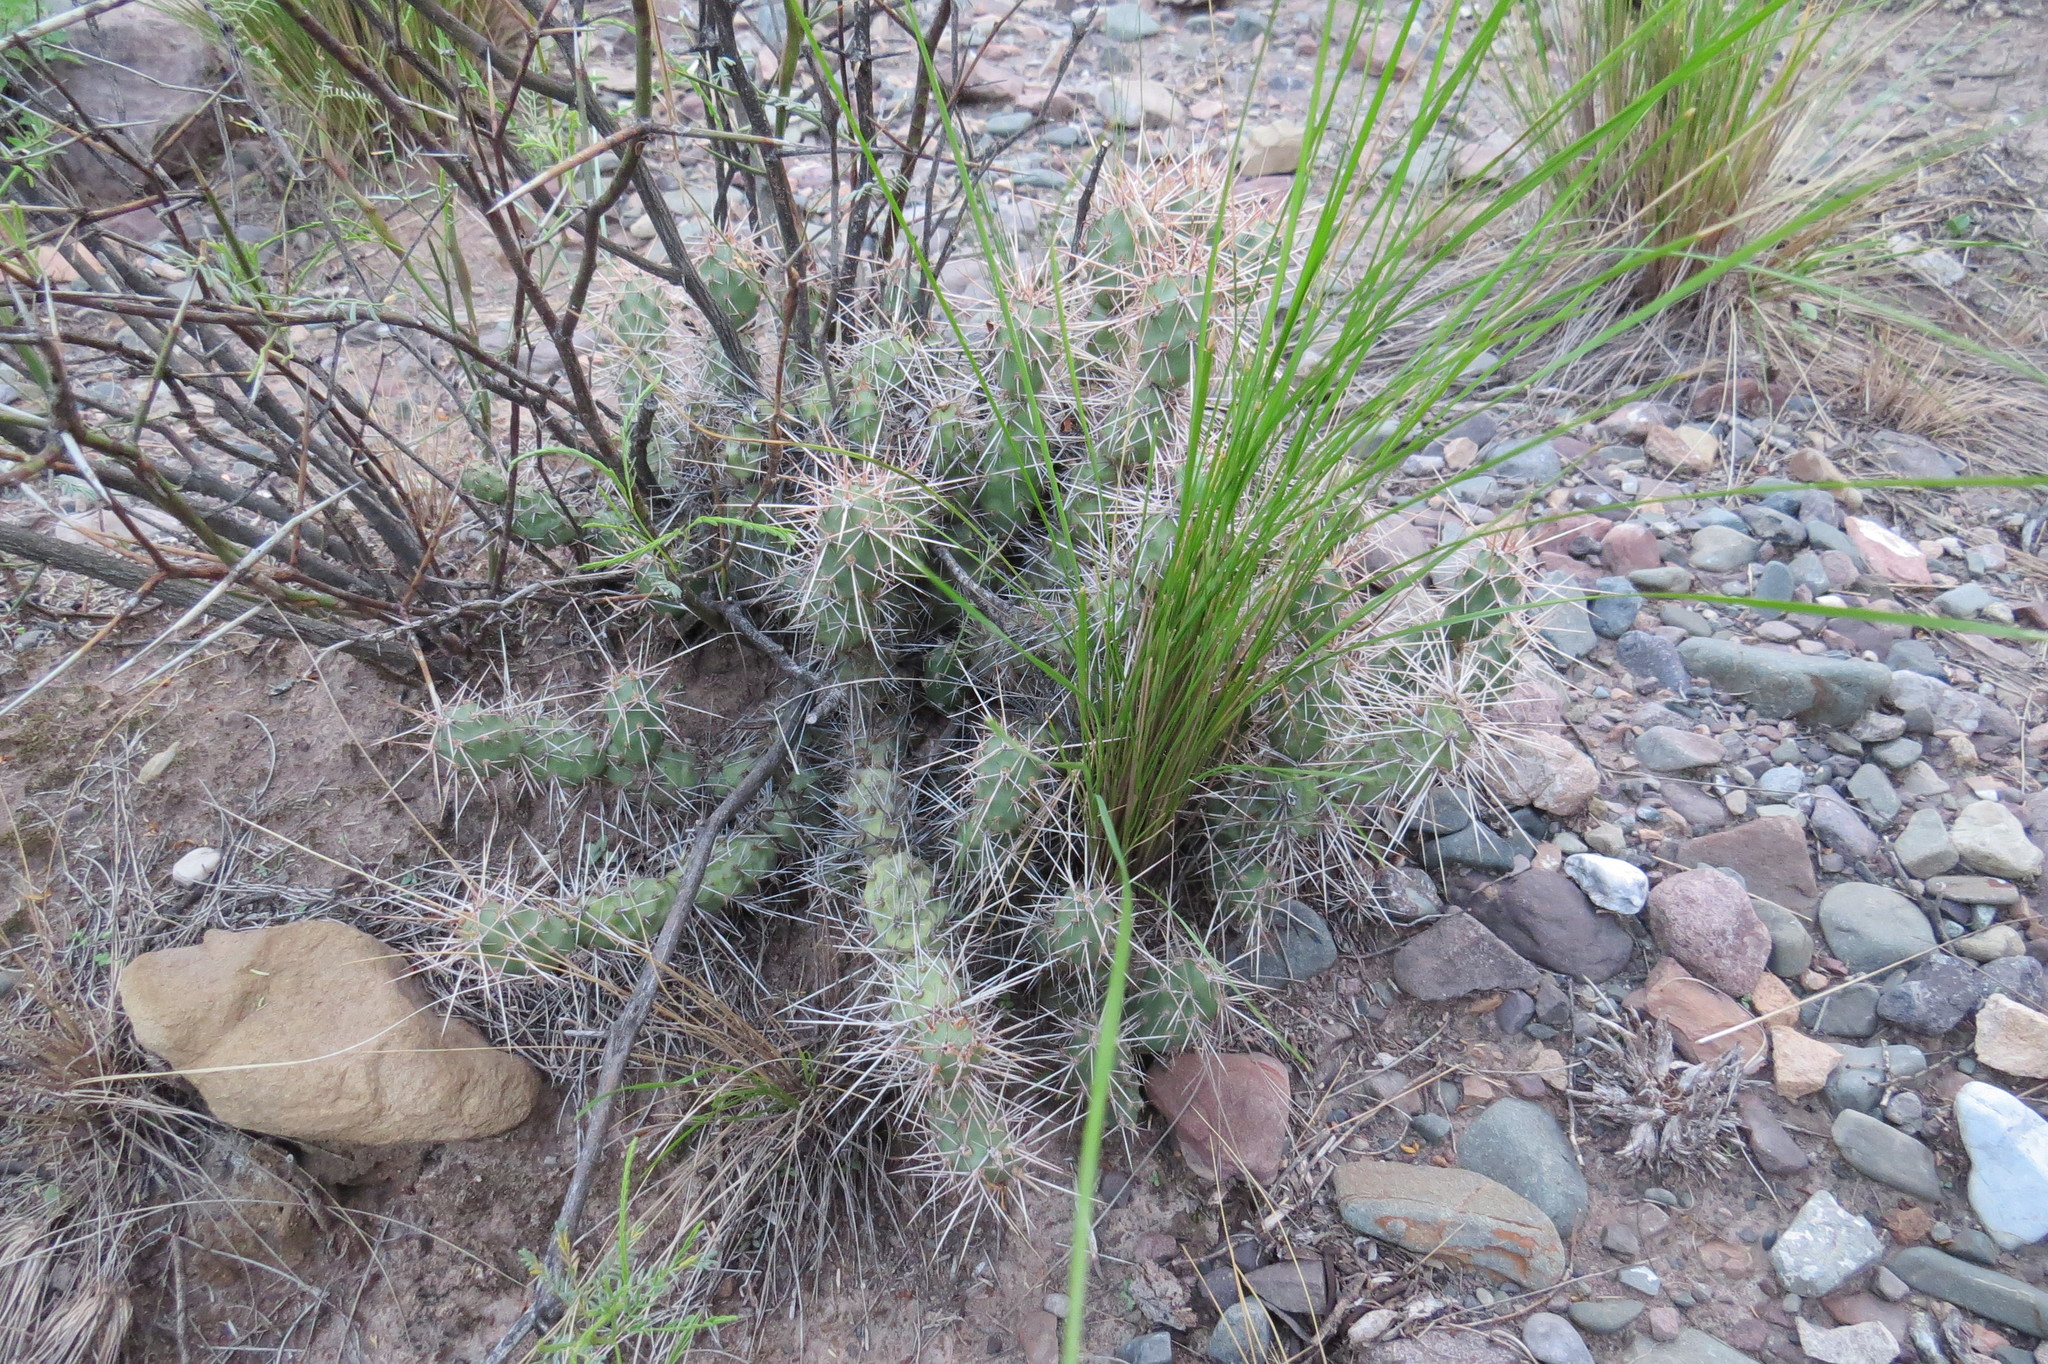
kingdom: Plantae
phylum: Tracheophyta
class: Magnoliopsida
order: Caryophyllales
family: Cactaceae
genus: Airampoa
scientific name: Airampoa corrugata
